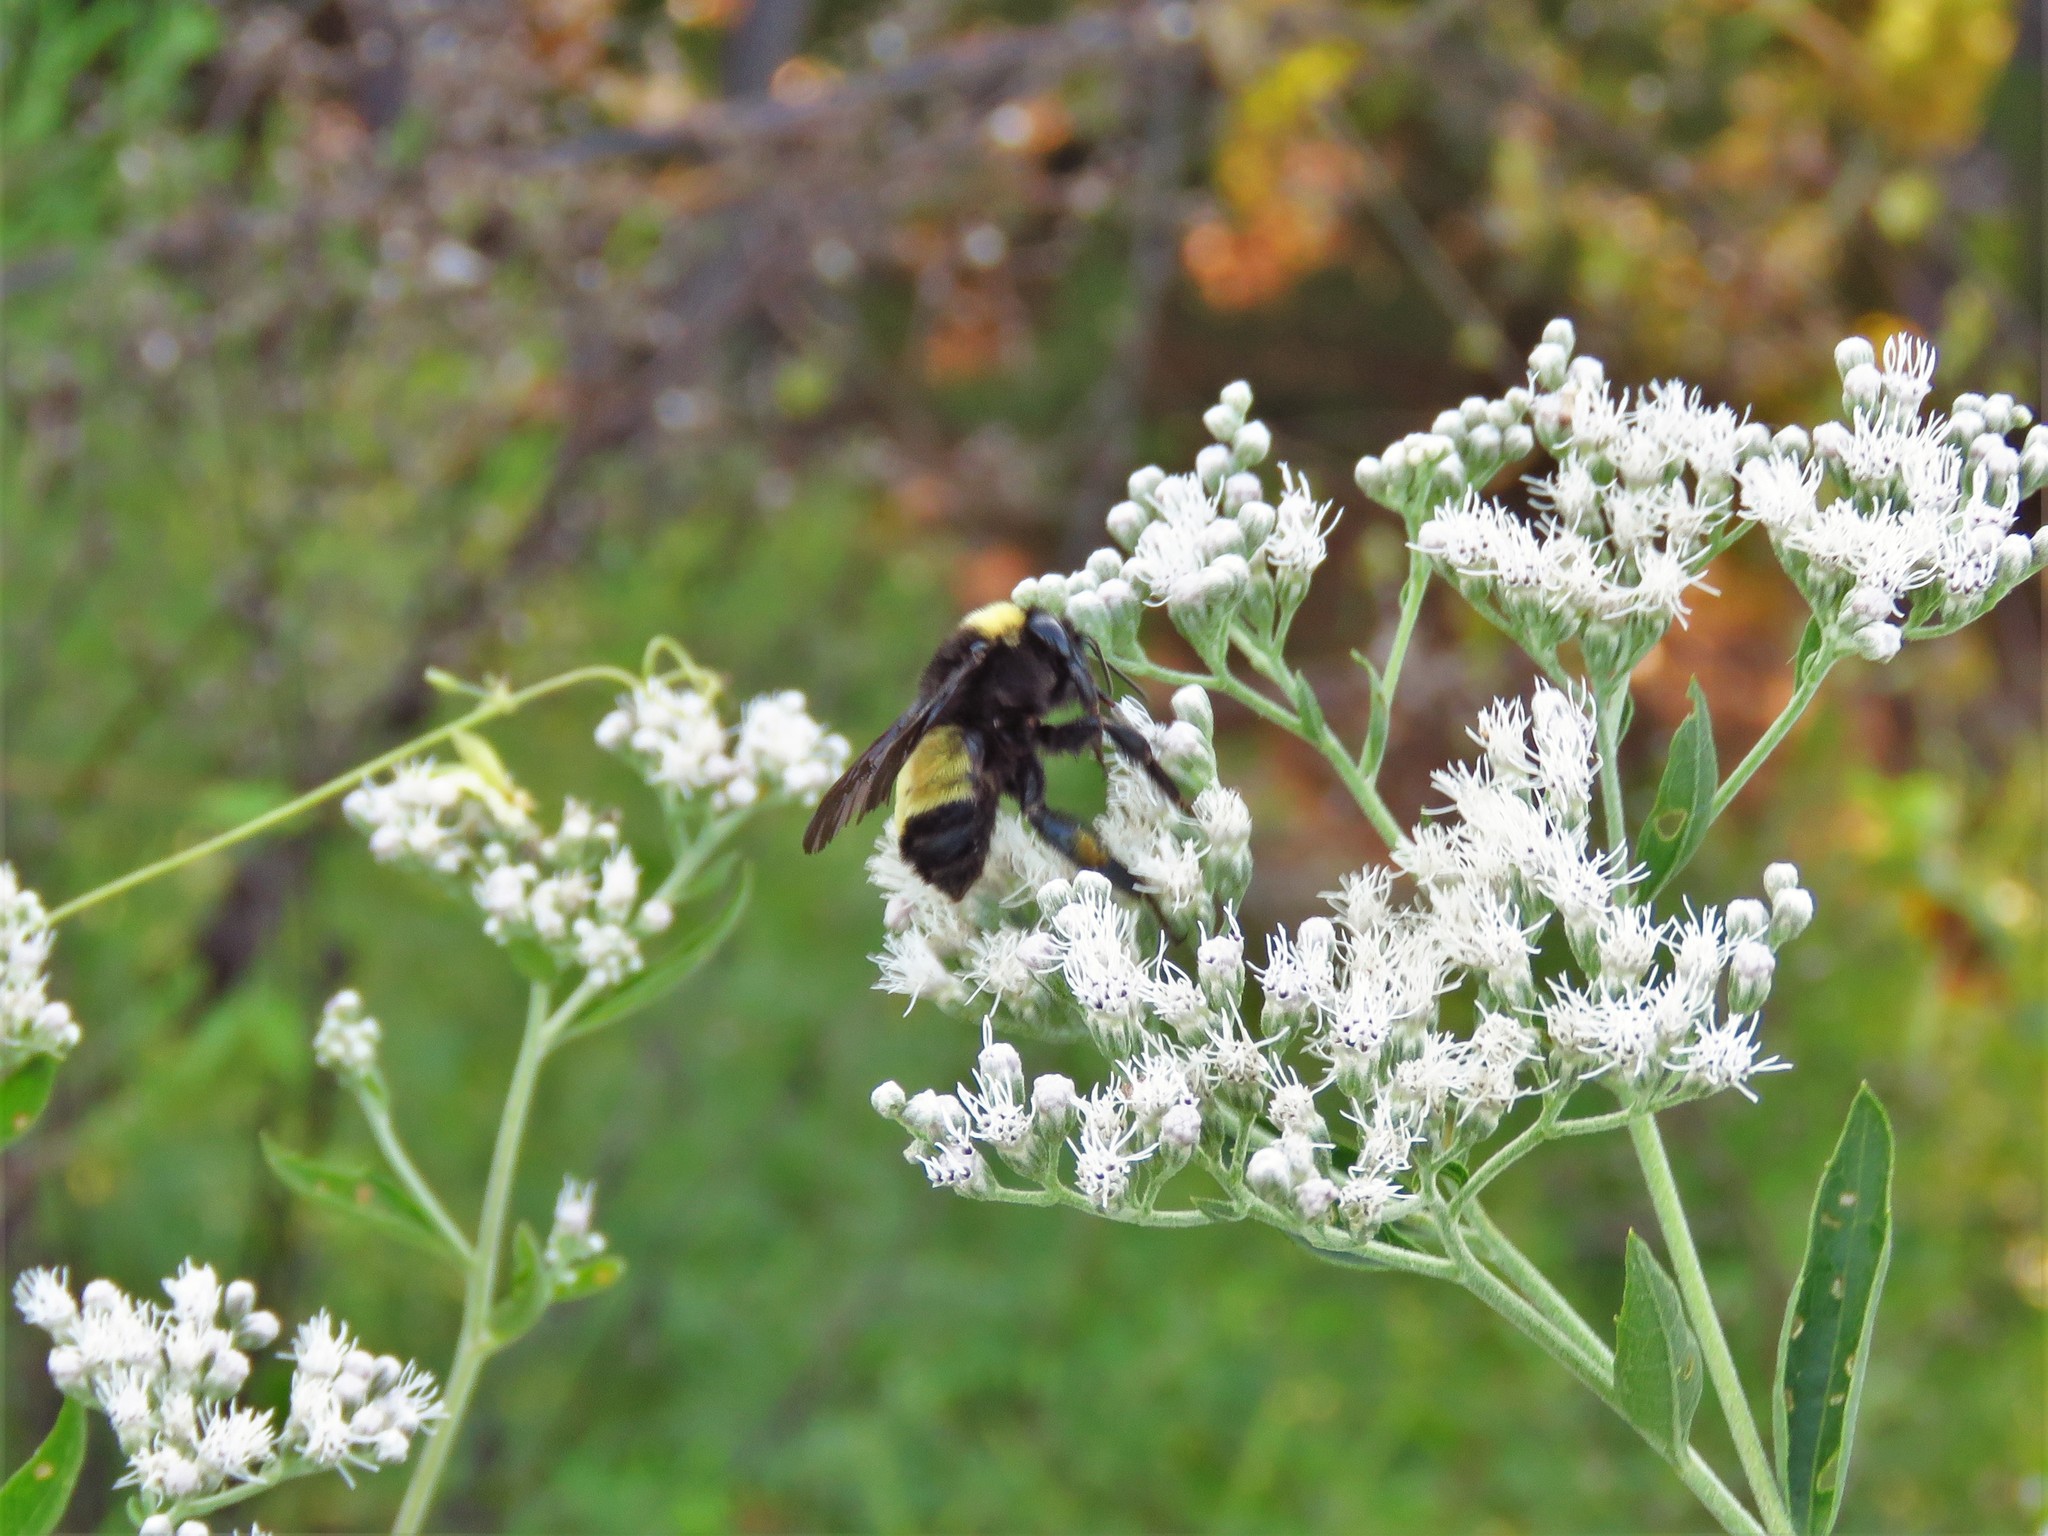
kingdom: Animalia
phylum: Arthropoda
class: Insecta
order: Hymenoptera
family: Apidae
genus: Bombus
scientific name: Bombus pensylvanicus
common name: Bumble bee
